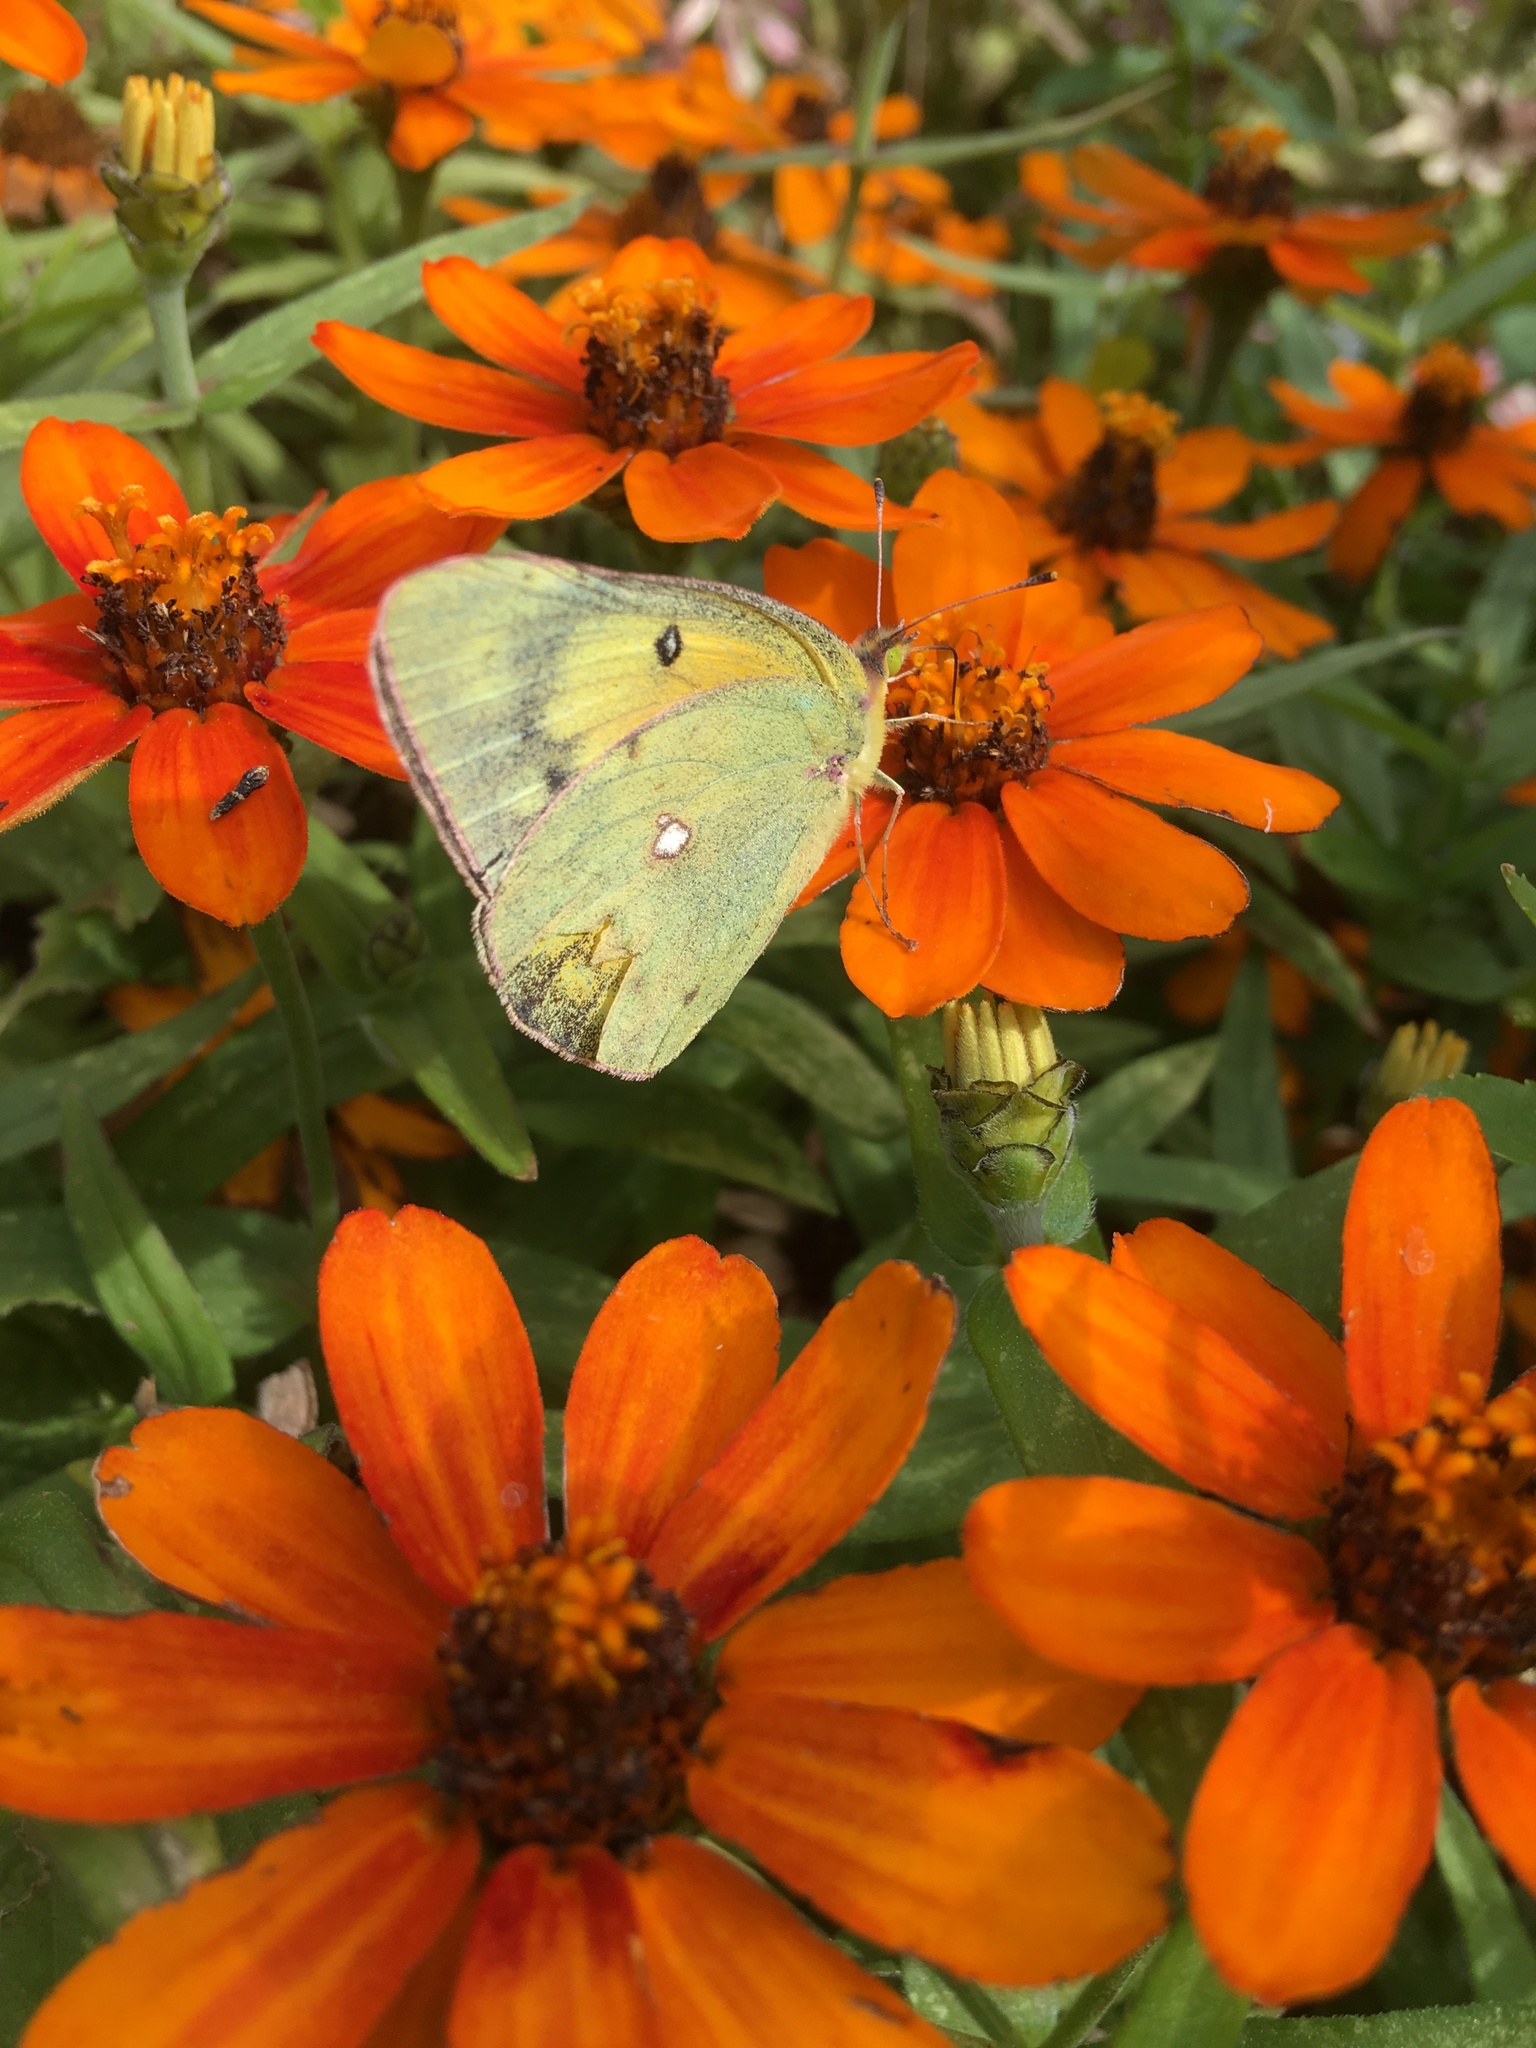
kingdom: Animalia
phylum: Arthropoda
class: Insecta
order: Lepidoptera
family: Pieridae
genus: Colias
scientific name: Colias eurytheme
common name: Alfalfa butterfly
